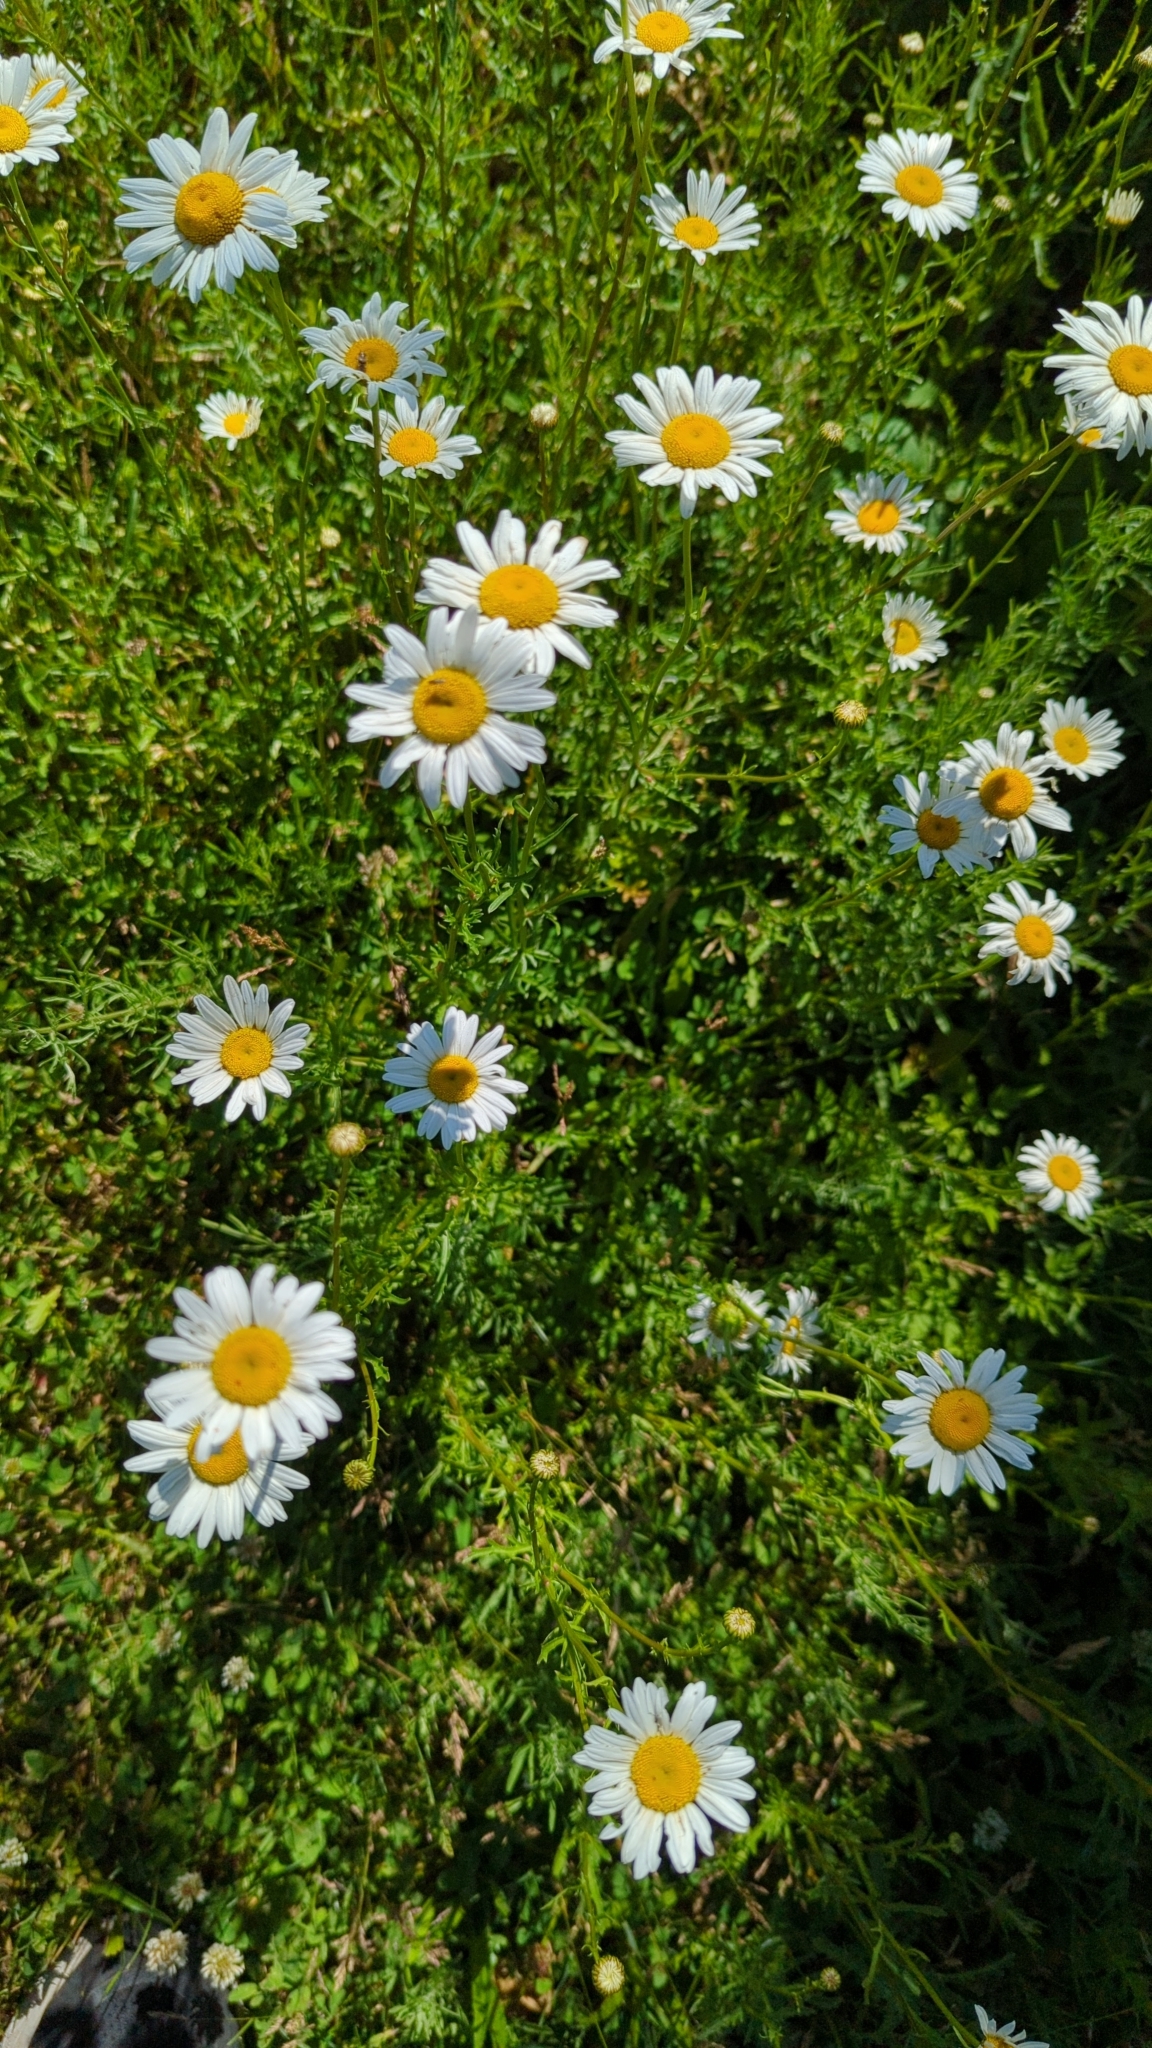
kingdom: Plantae
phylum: Tracheophyta
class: Magnoliopsida
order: Asterales
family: Asteraceae
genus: Leucanthemum
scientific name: Leucanthemum vulgare
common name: Oxeye daisy
